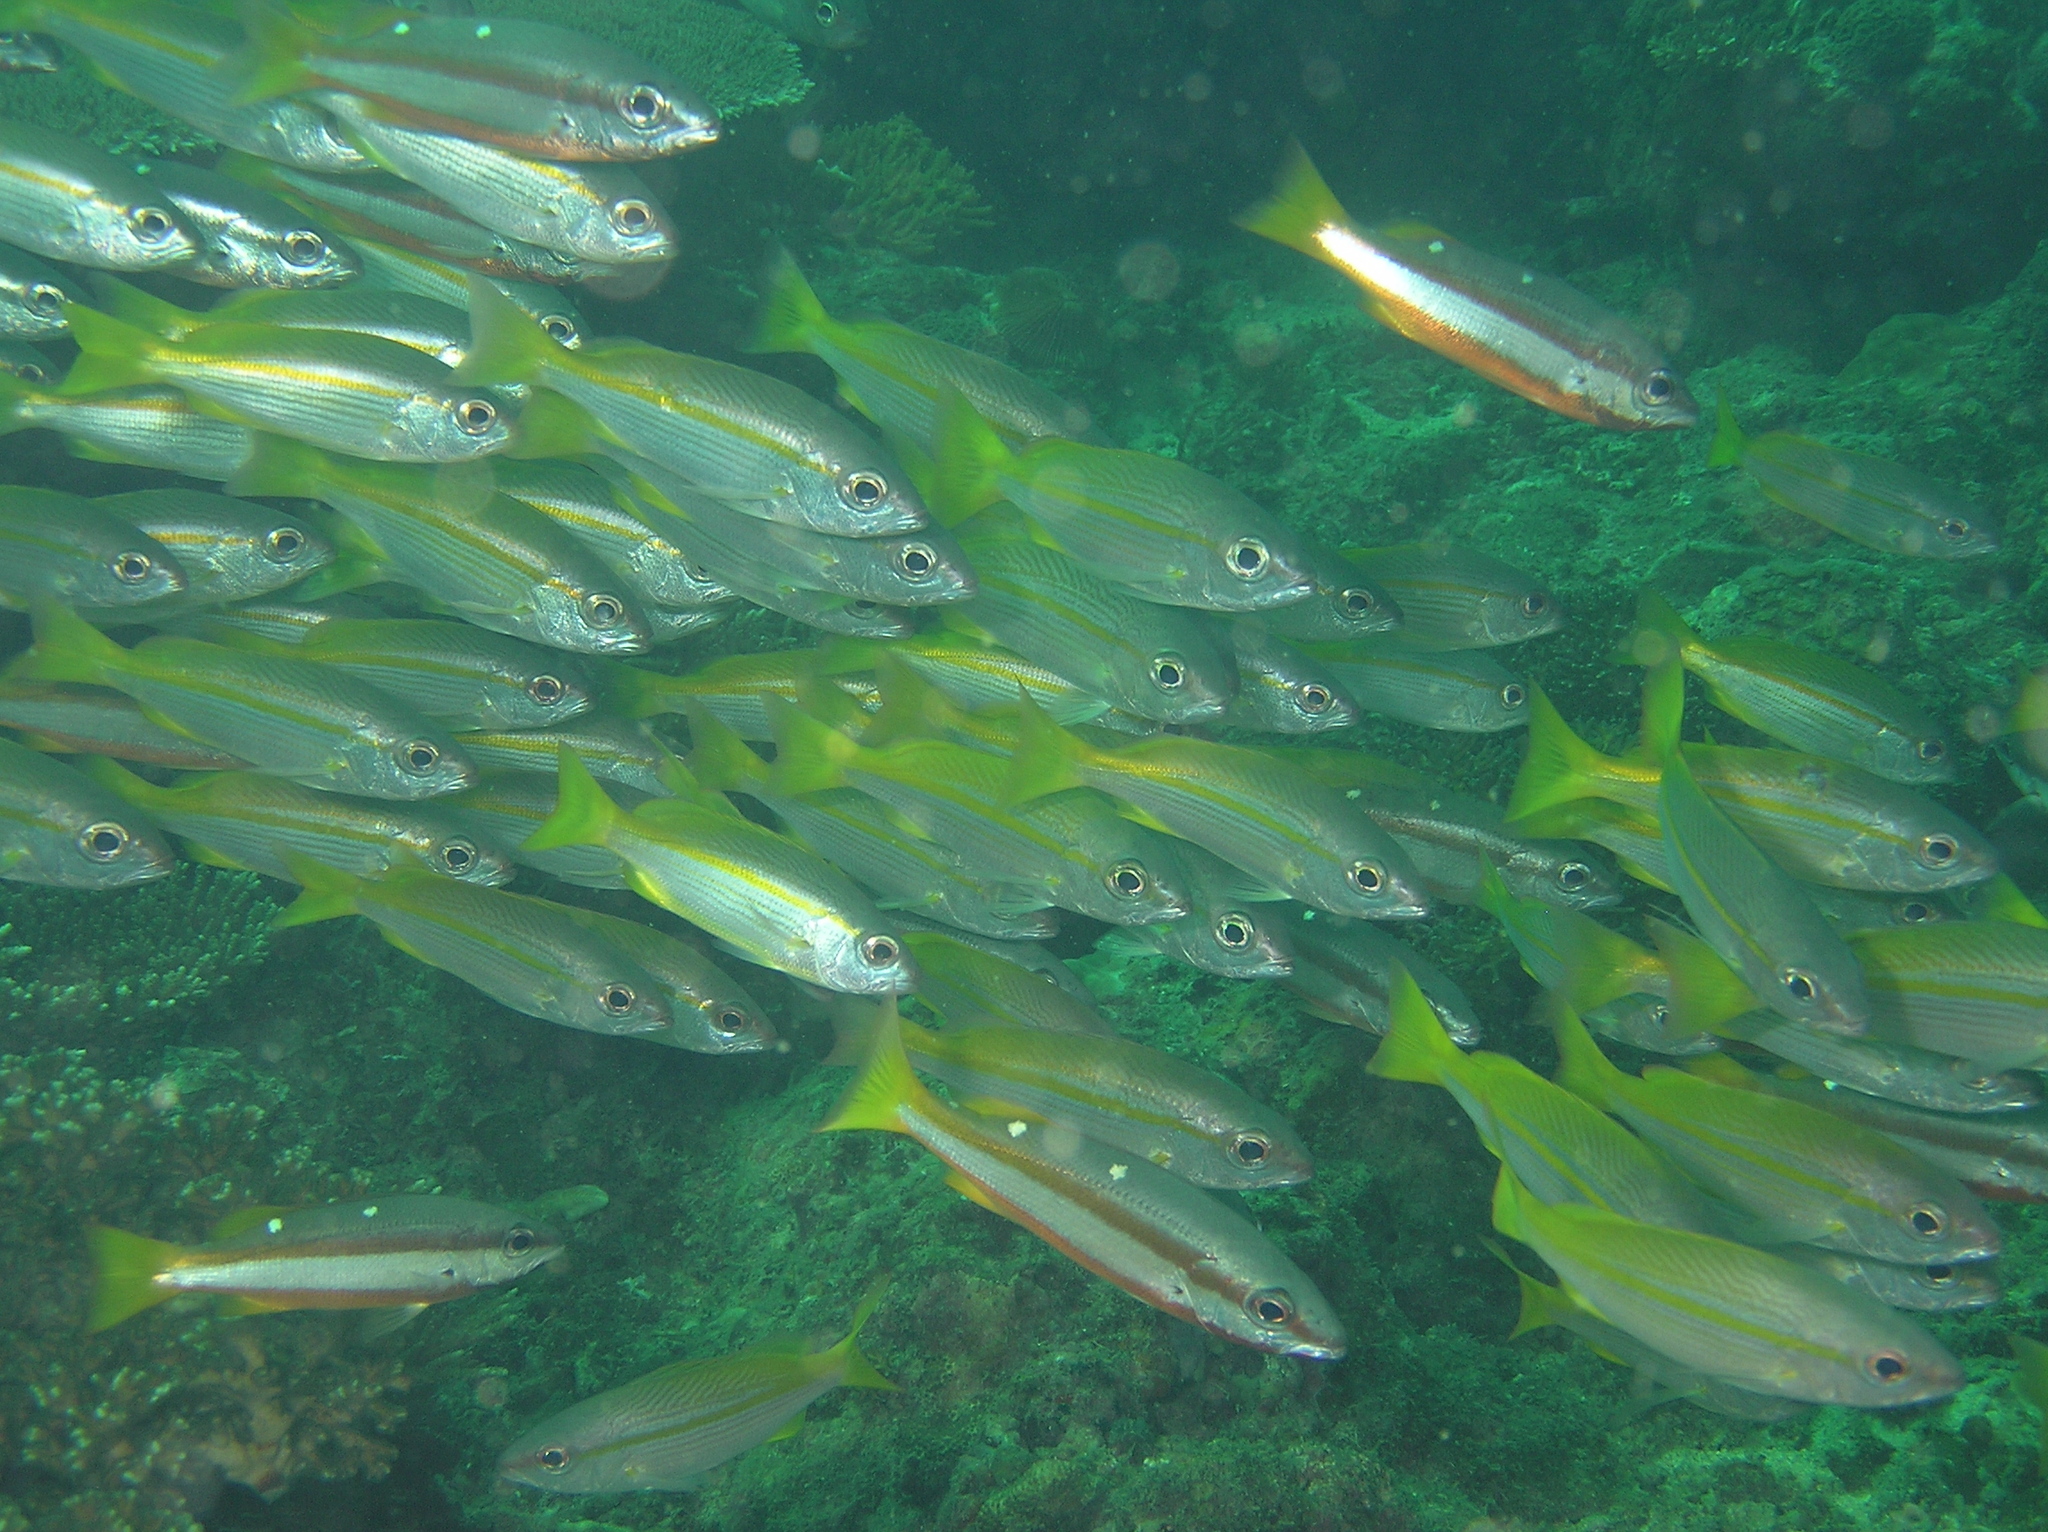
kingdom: Animalia
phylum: Chordata
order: Perciformes
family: Lutjanidae
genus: Lutjanus
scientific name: Lutjanus biguttatus
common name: Two-spot snapper
